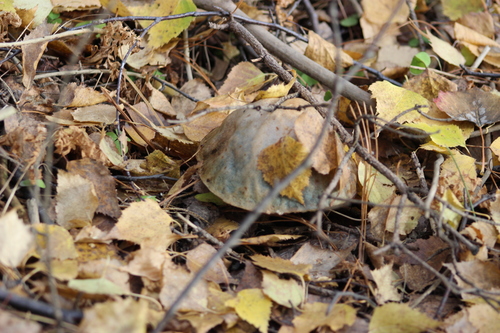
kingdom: Fungi
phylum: Basidiomycota
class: Agaricomycetes
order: Boletales
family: Boletaceae
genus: Leccinum
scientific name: Leccinum holopus
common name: Ghost bolete
